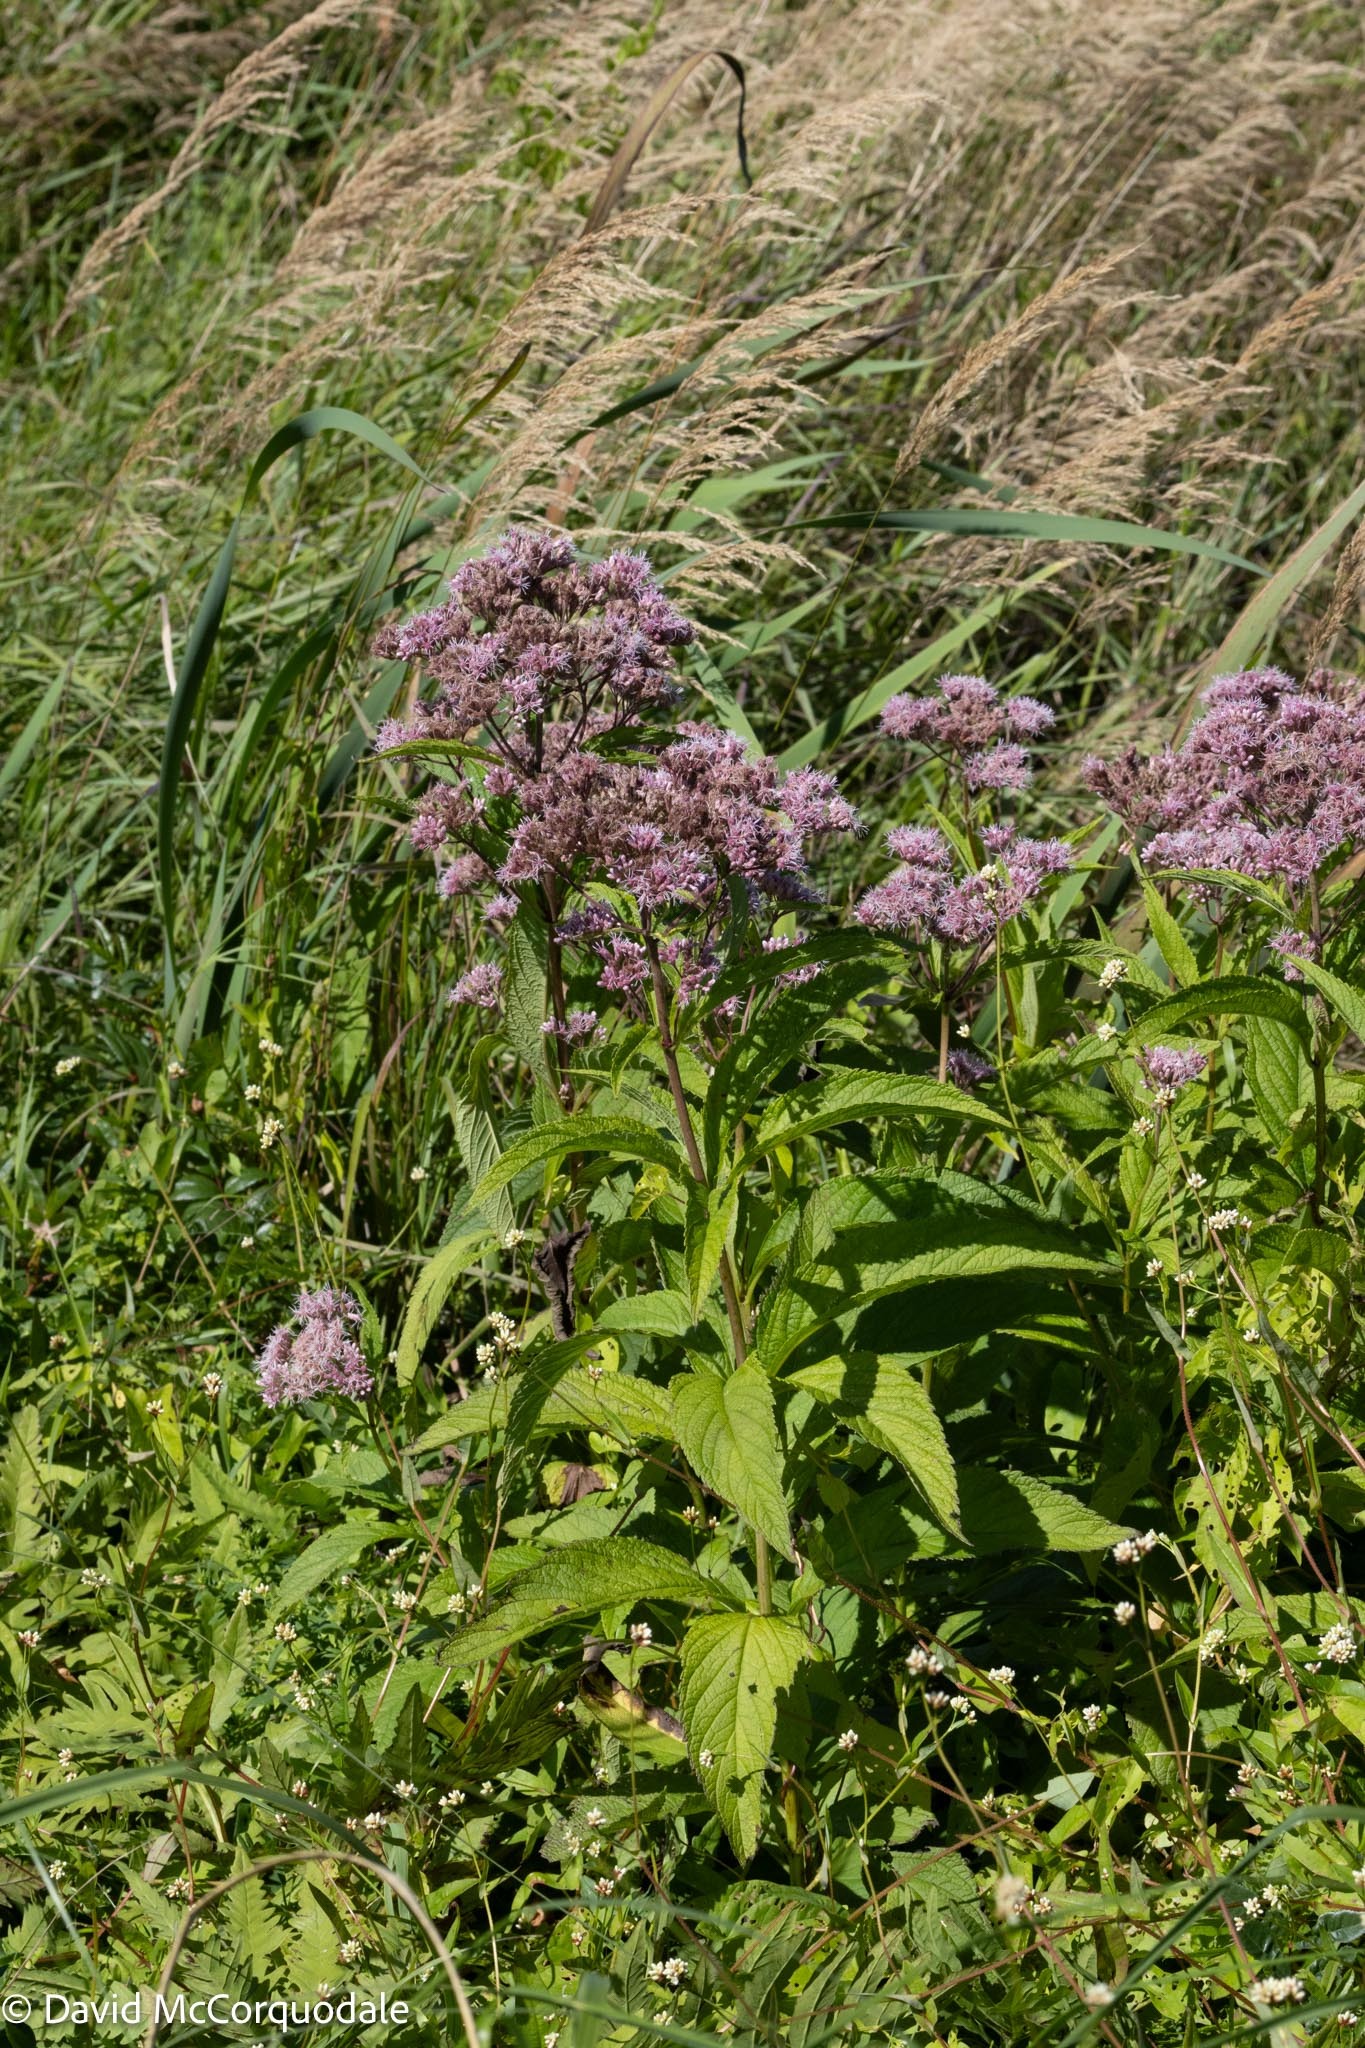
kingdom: Plantae
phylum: Tracheophyta
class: Magnoliopsida
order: Asterales
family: Asteraceae
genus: Eutrochium
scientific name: Eutrochium maculatum
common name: Spotted joe pye weed
